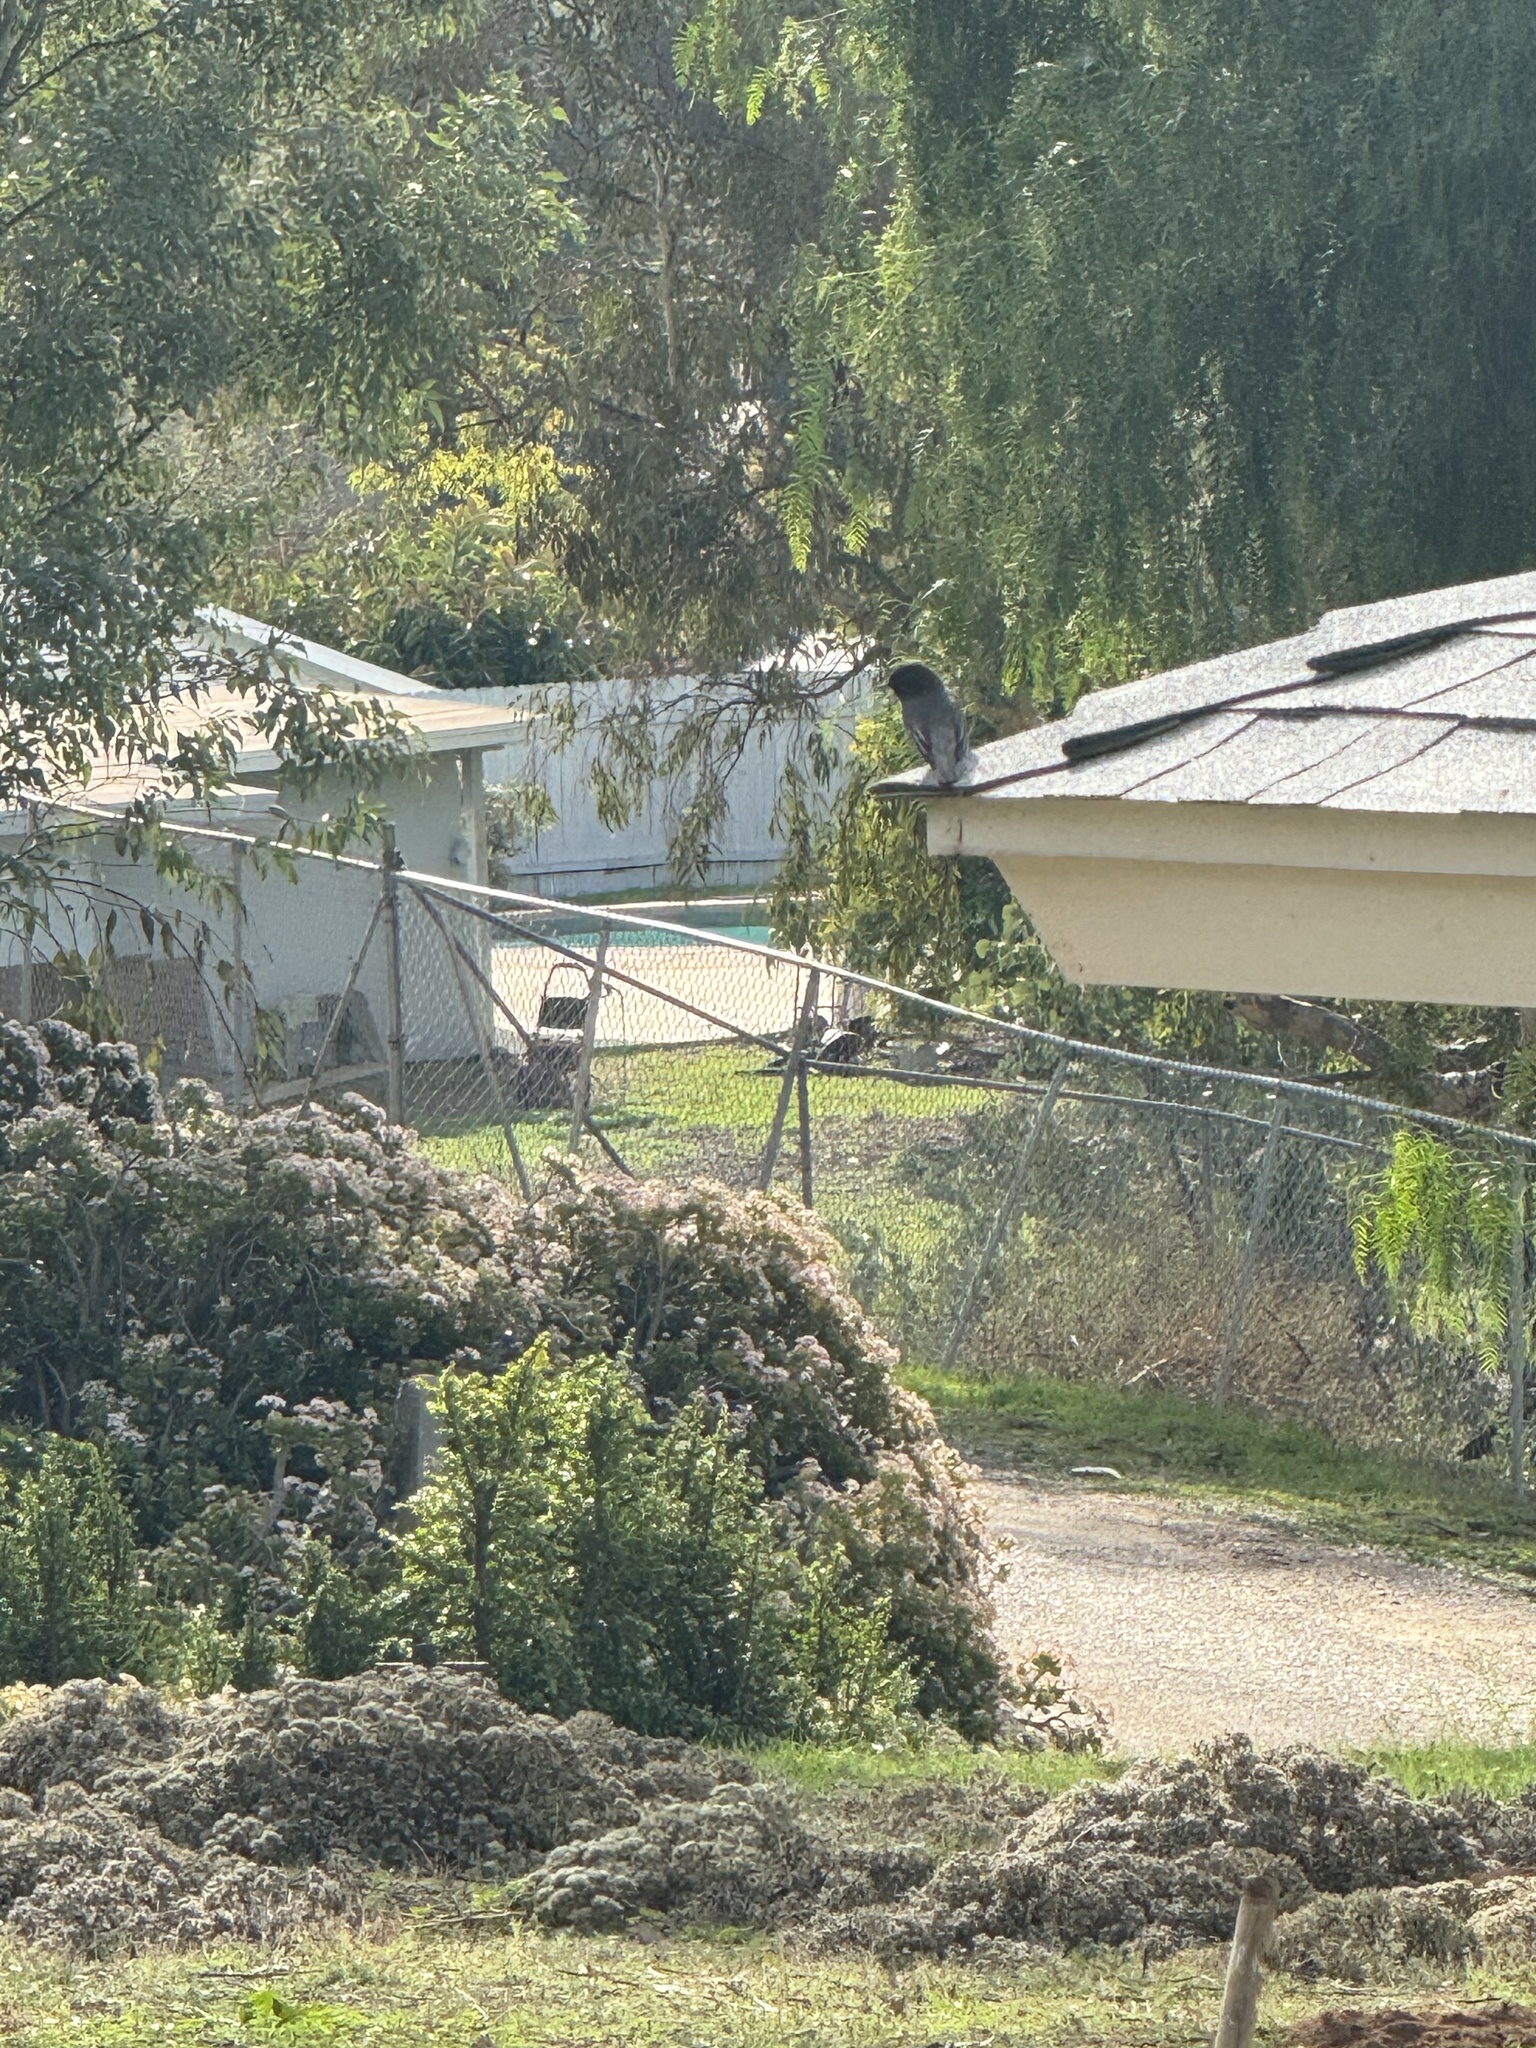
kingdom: Animalia
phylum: Chordata
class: Aves
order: Passeriformes
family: Tyrannidae
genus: Sayornis
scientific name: Sayornis nigricans
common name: Black phoebe
